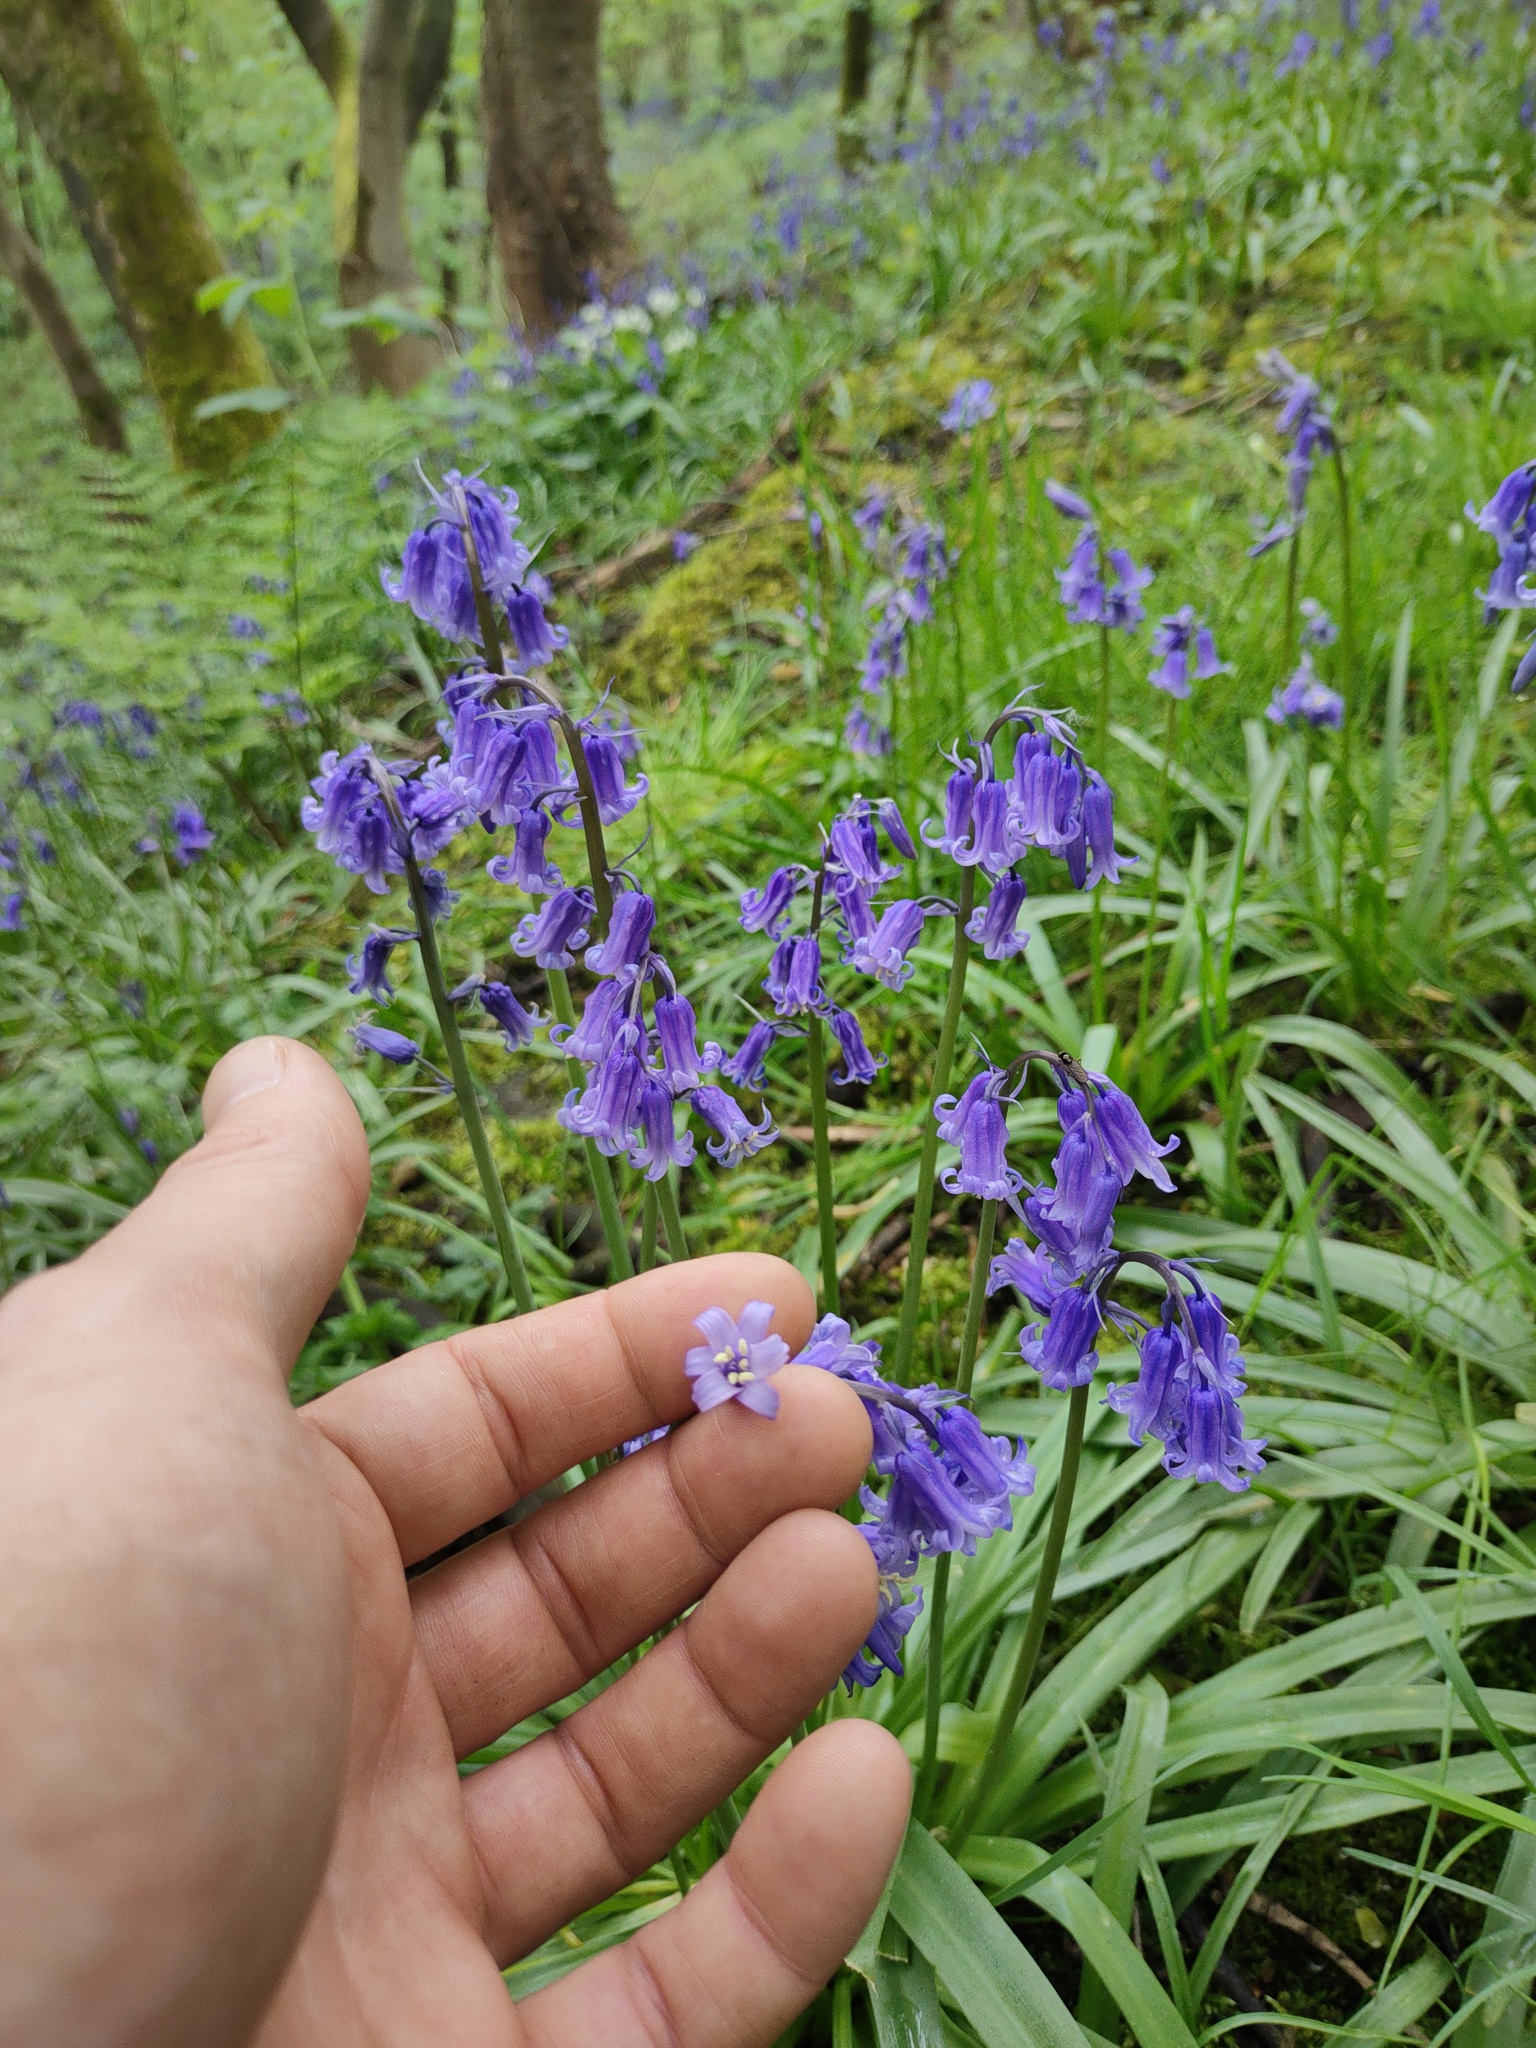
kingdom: Plantae
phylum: Tracheophyta
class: Liliopsida
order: Asparagales
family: Asparagaceae
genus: Hyacinthoides
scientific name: Hyacinthoides non-scripta
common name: Bluebell
